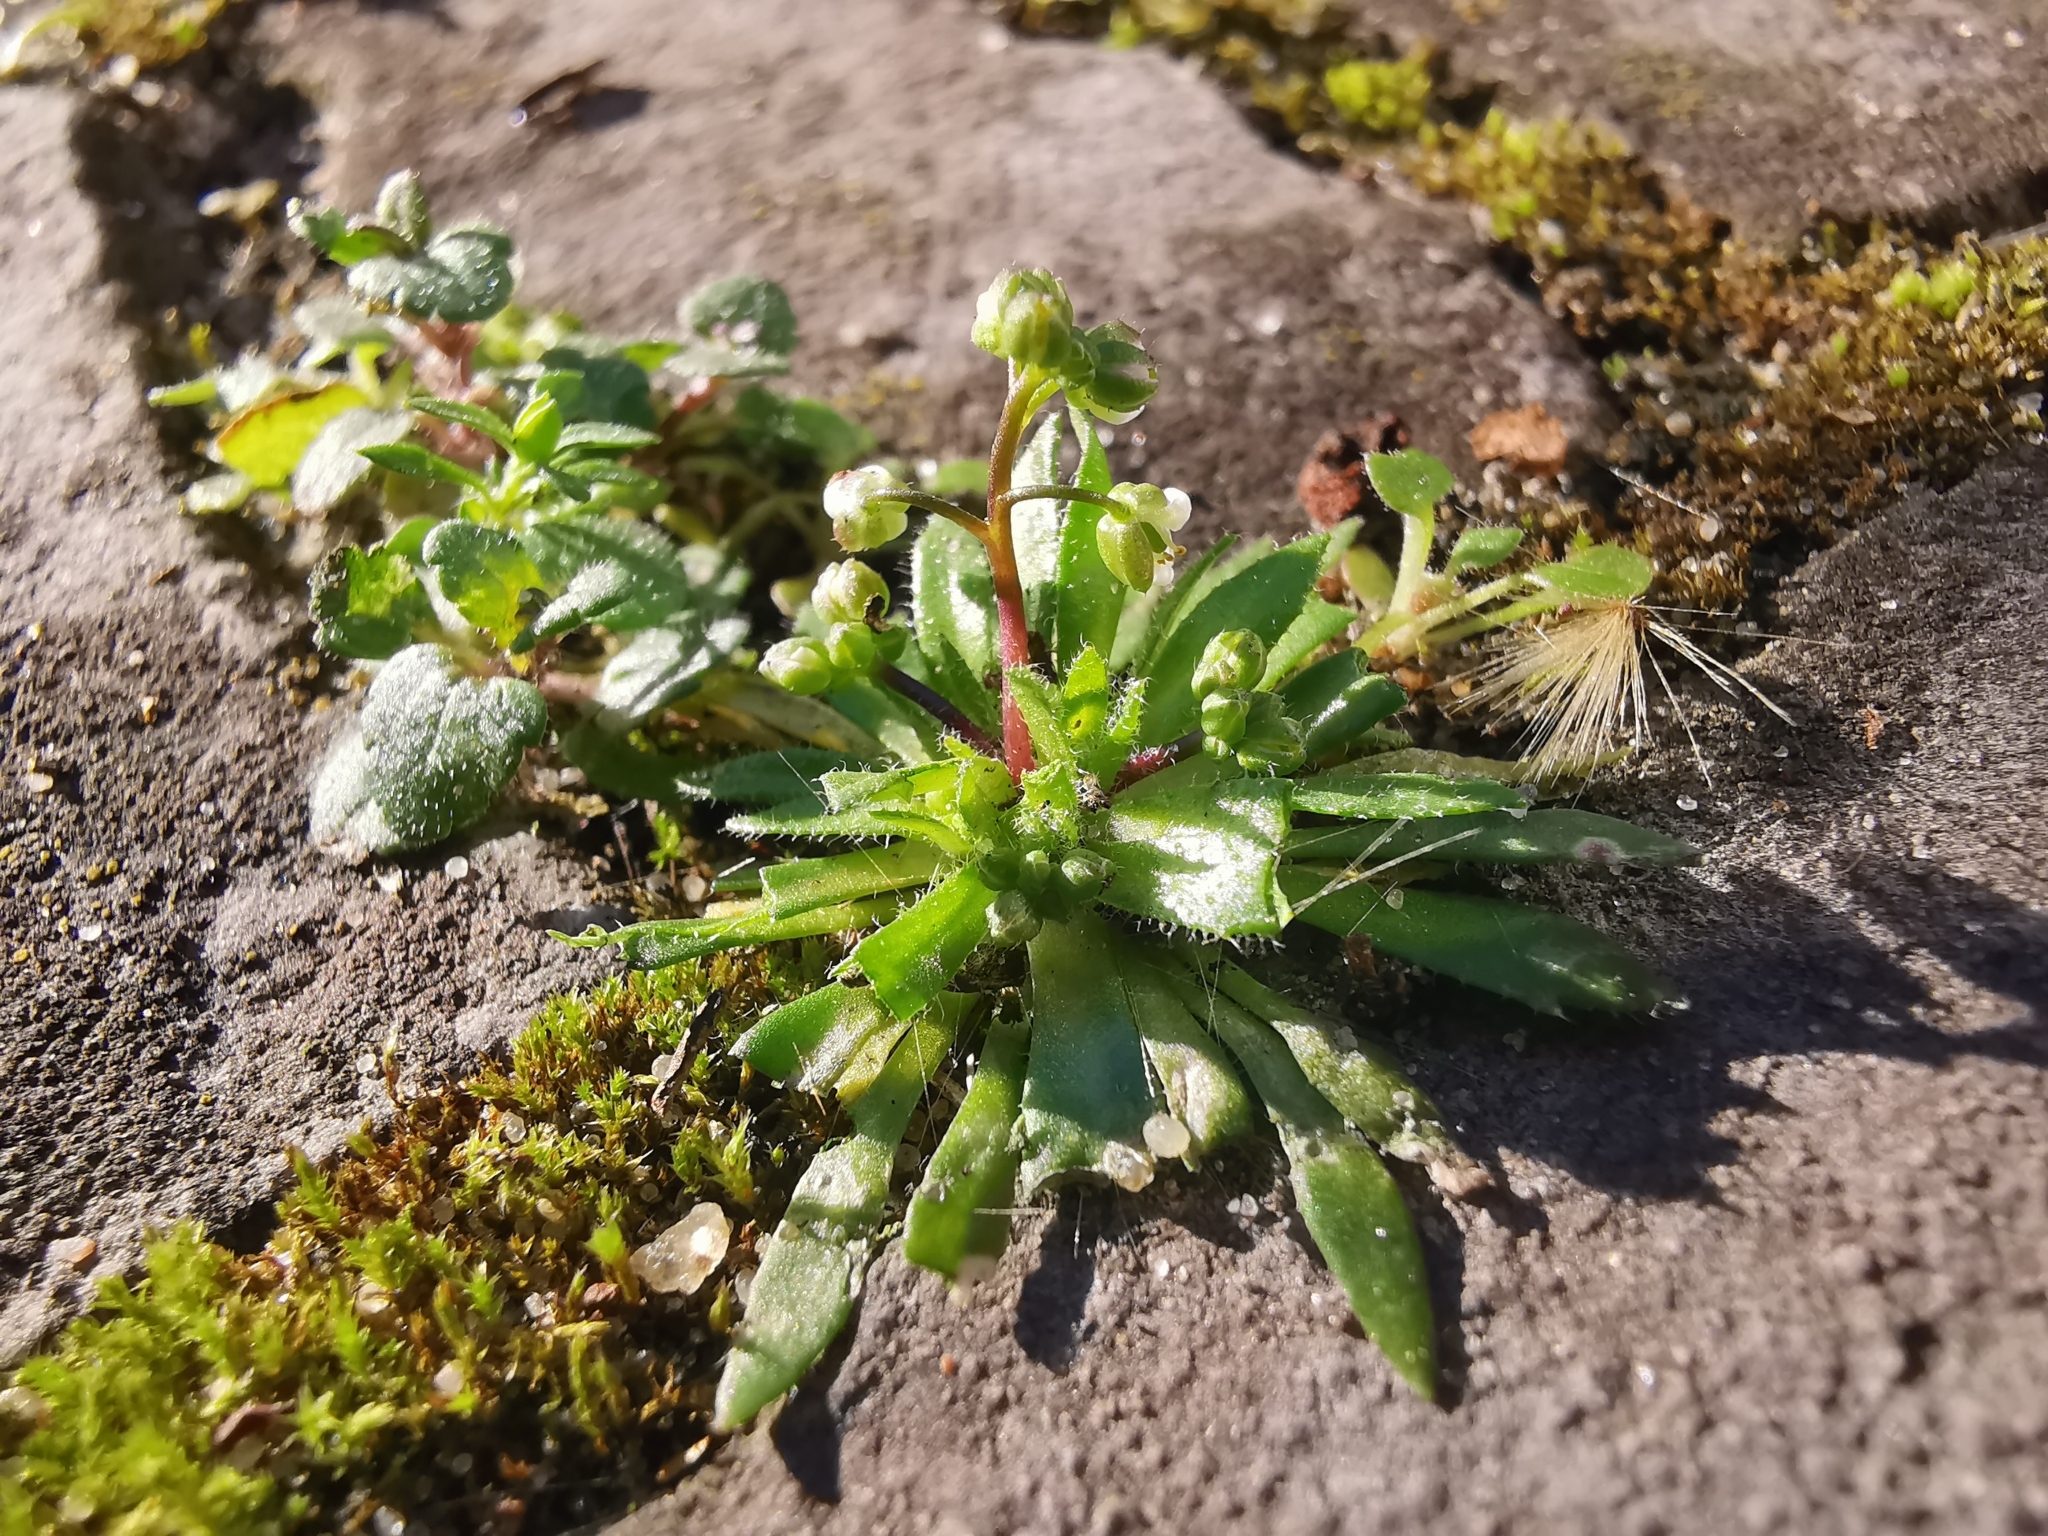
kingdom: Plantae
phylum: Tracheophyta
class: Magnoliopsida
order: Brassicales
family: Brassicaceae
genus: Draba
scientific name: Draba verna
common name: Spring draba
